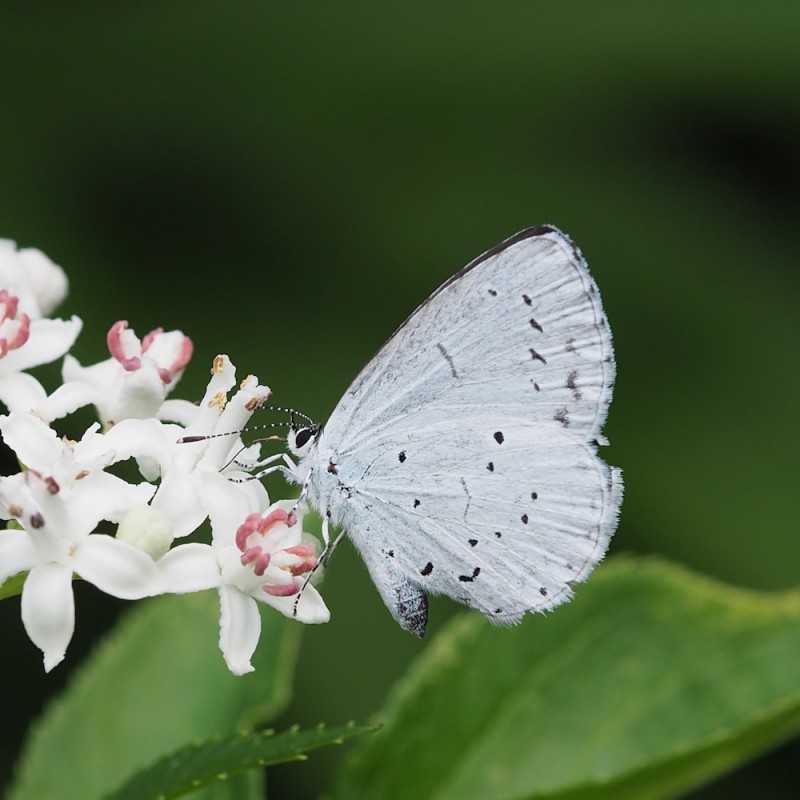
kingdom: Animalia
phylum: Arthropoda
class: Insecta
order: Lepidoptera
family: Lycaenidae
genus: Celastrina
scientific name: Celastrina argiolus
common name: Holly blue
